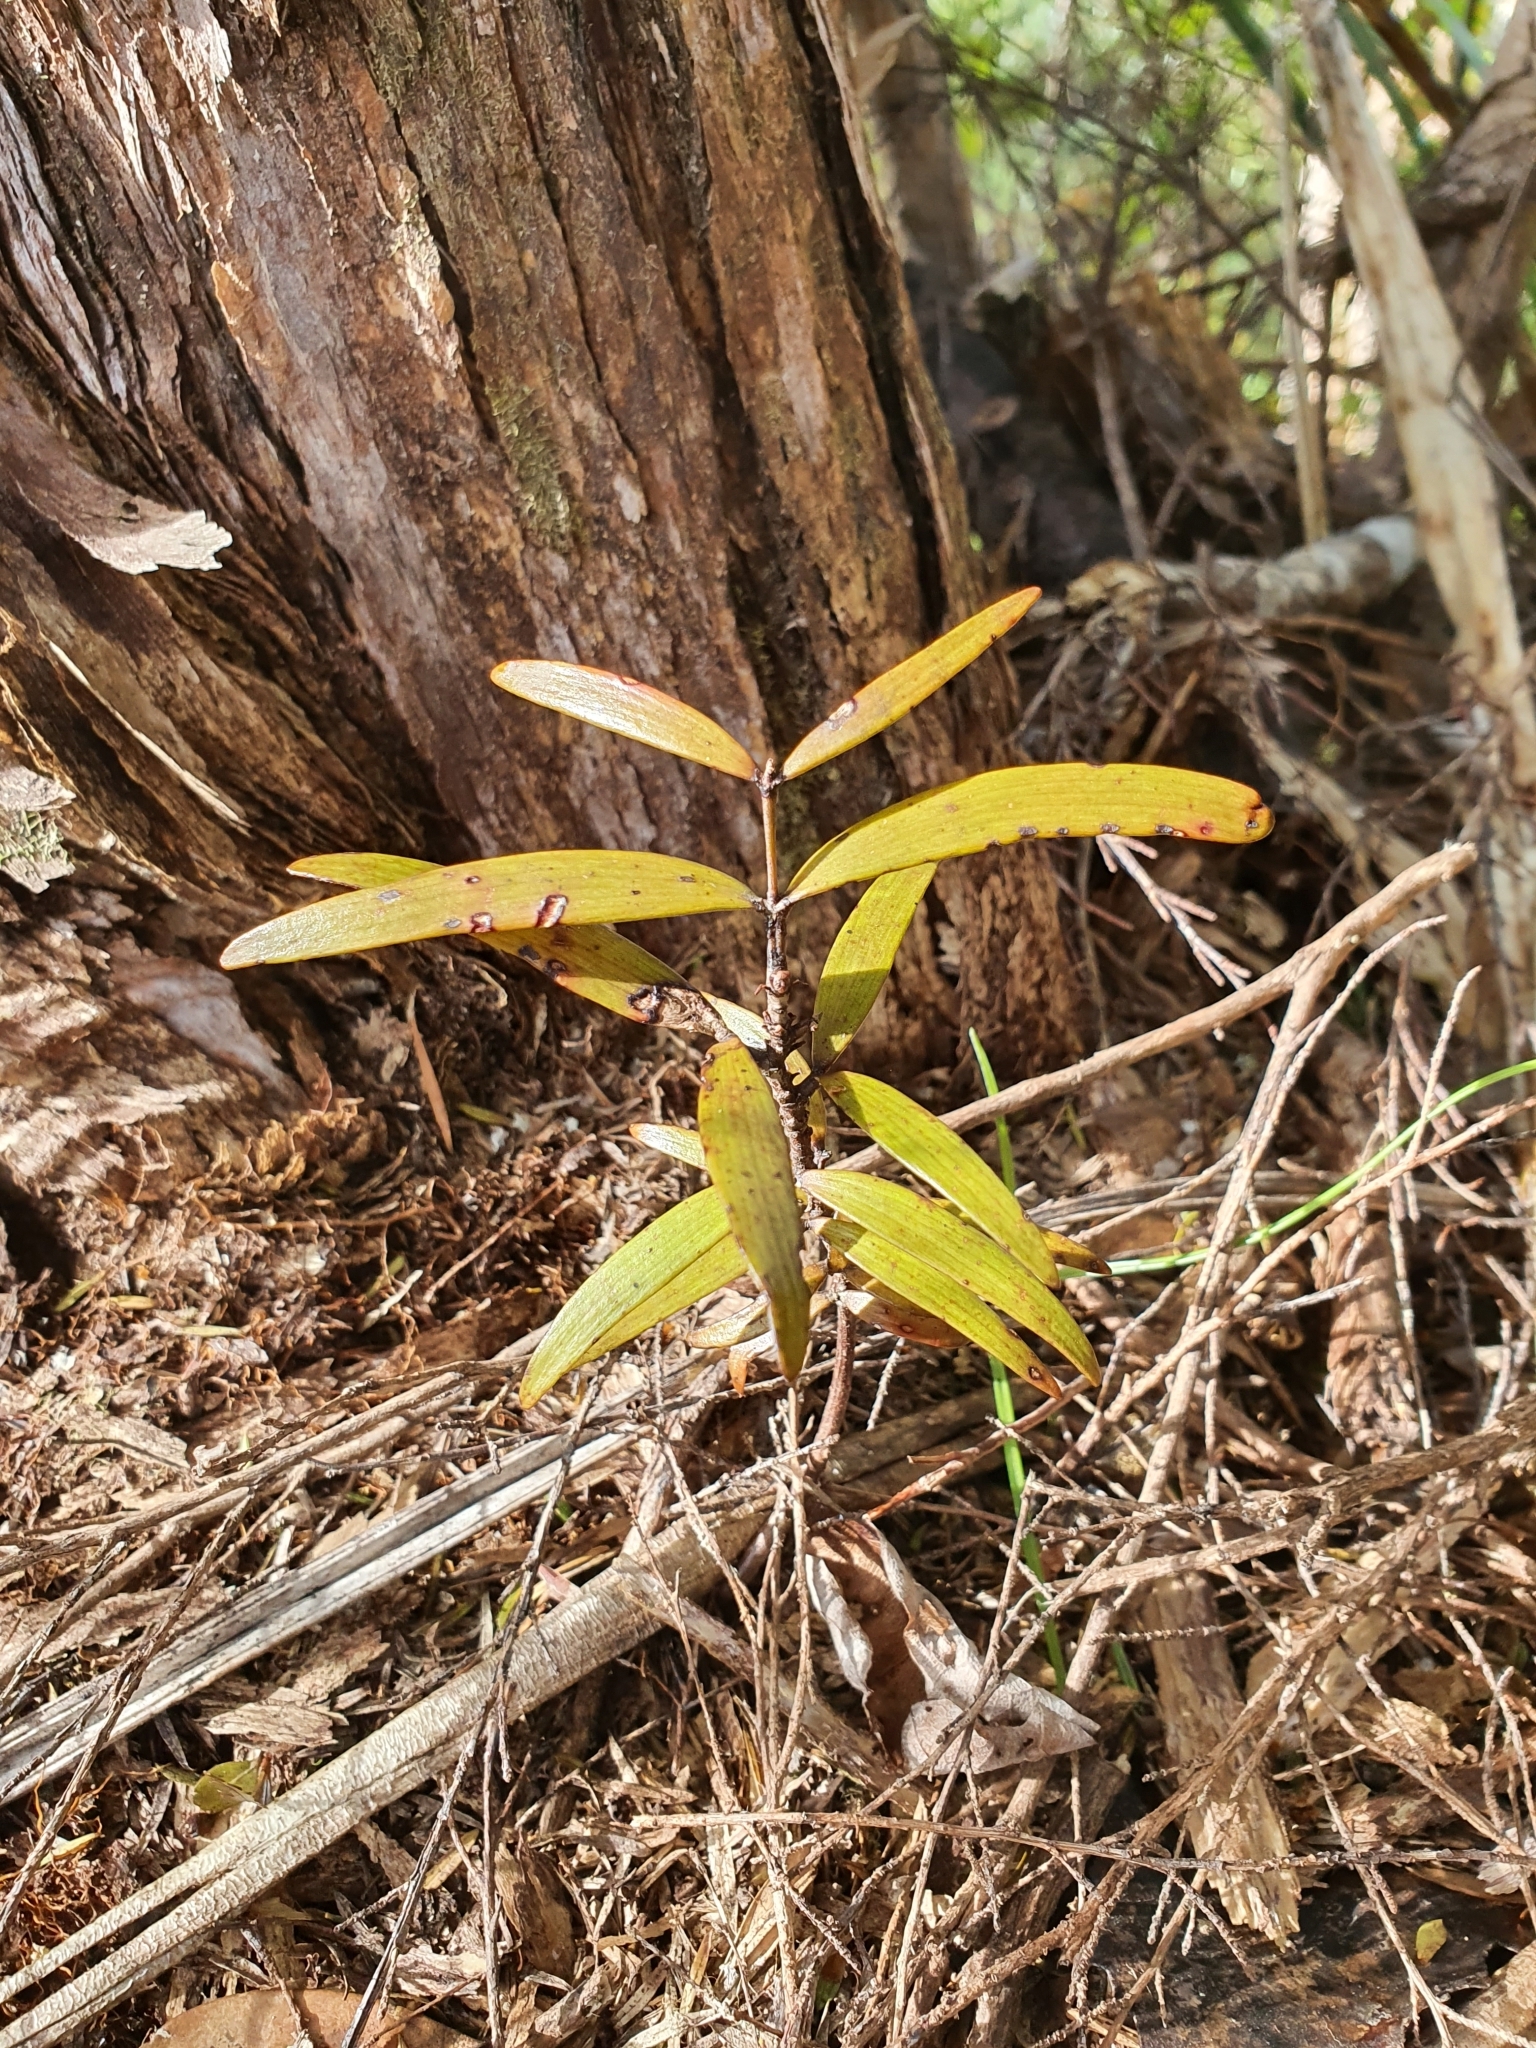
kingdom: Plantae
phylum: Tracheophyta
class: Pinopsida
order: Pinales
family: Araucariaceae
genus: Agathis
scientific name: Agathis australis
